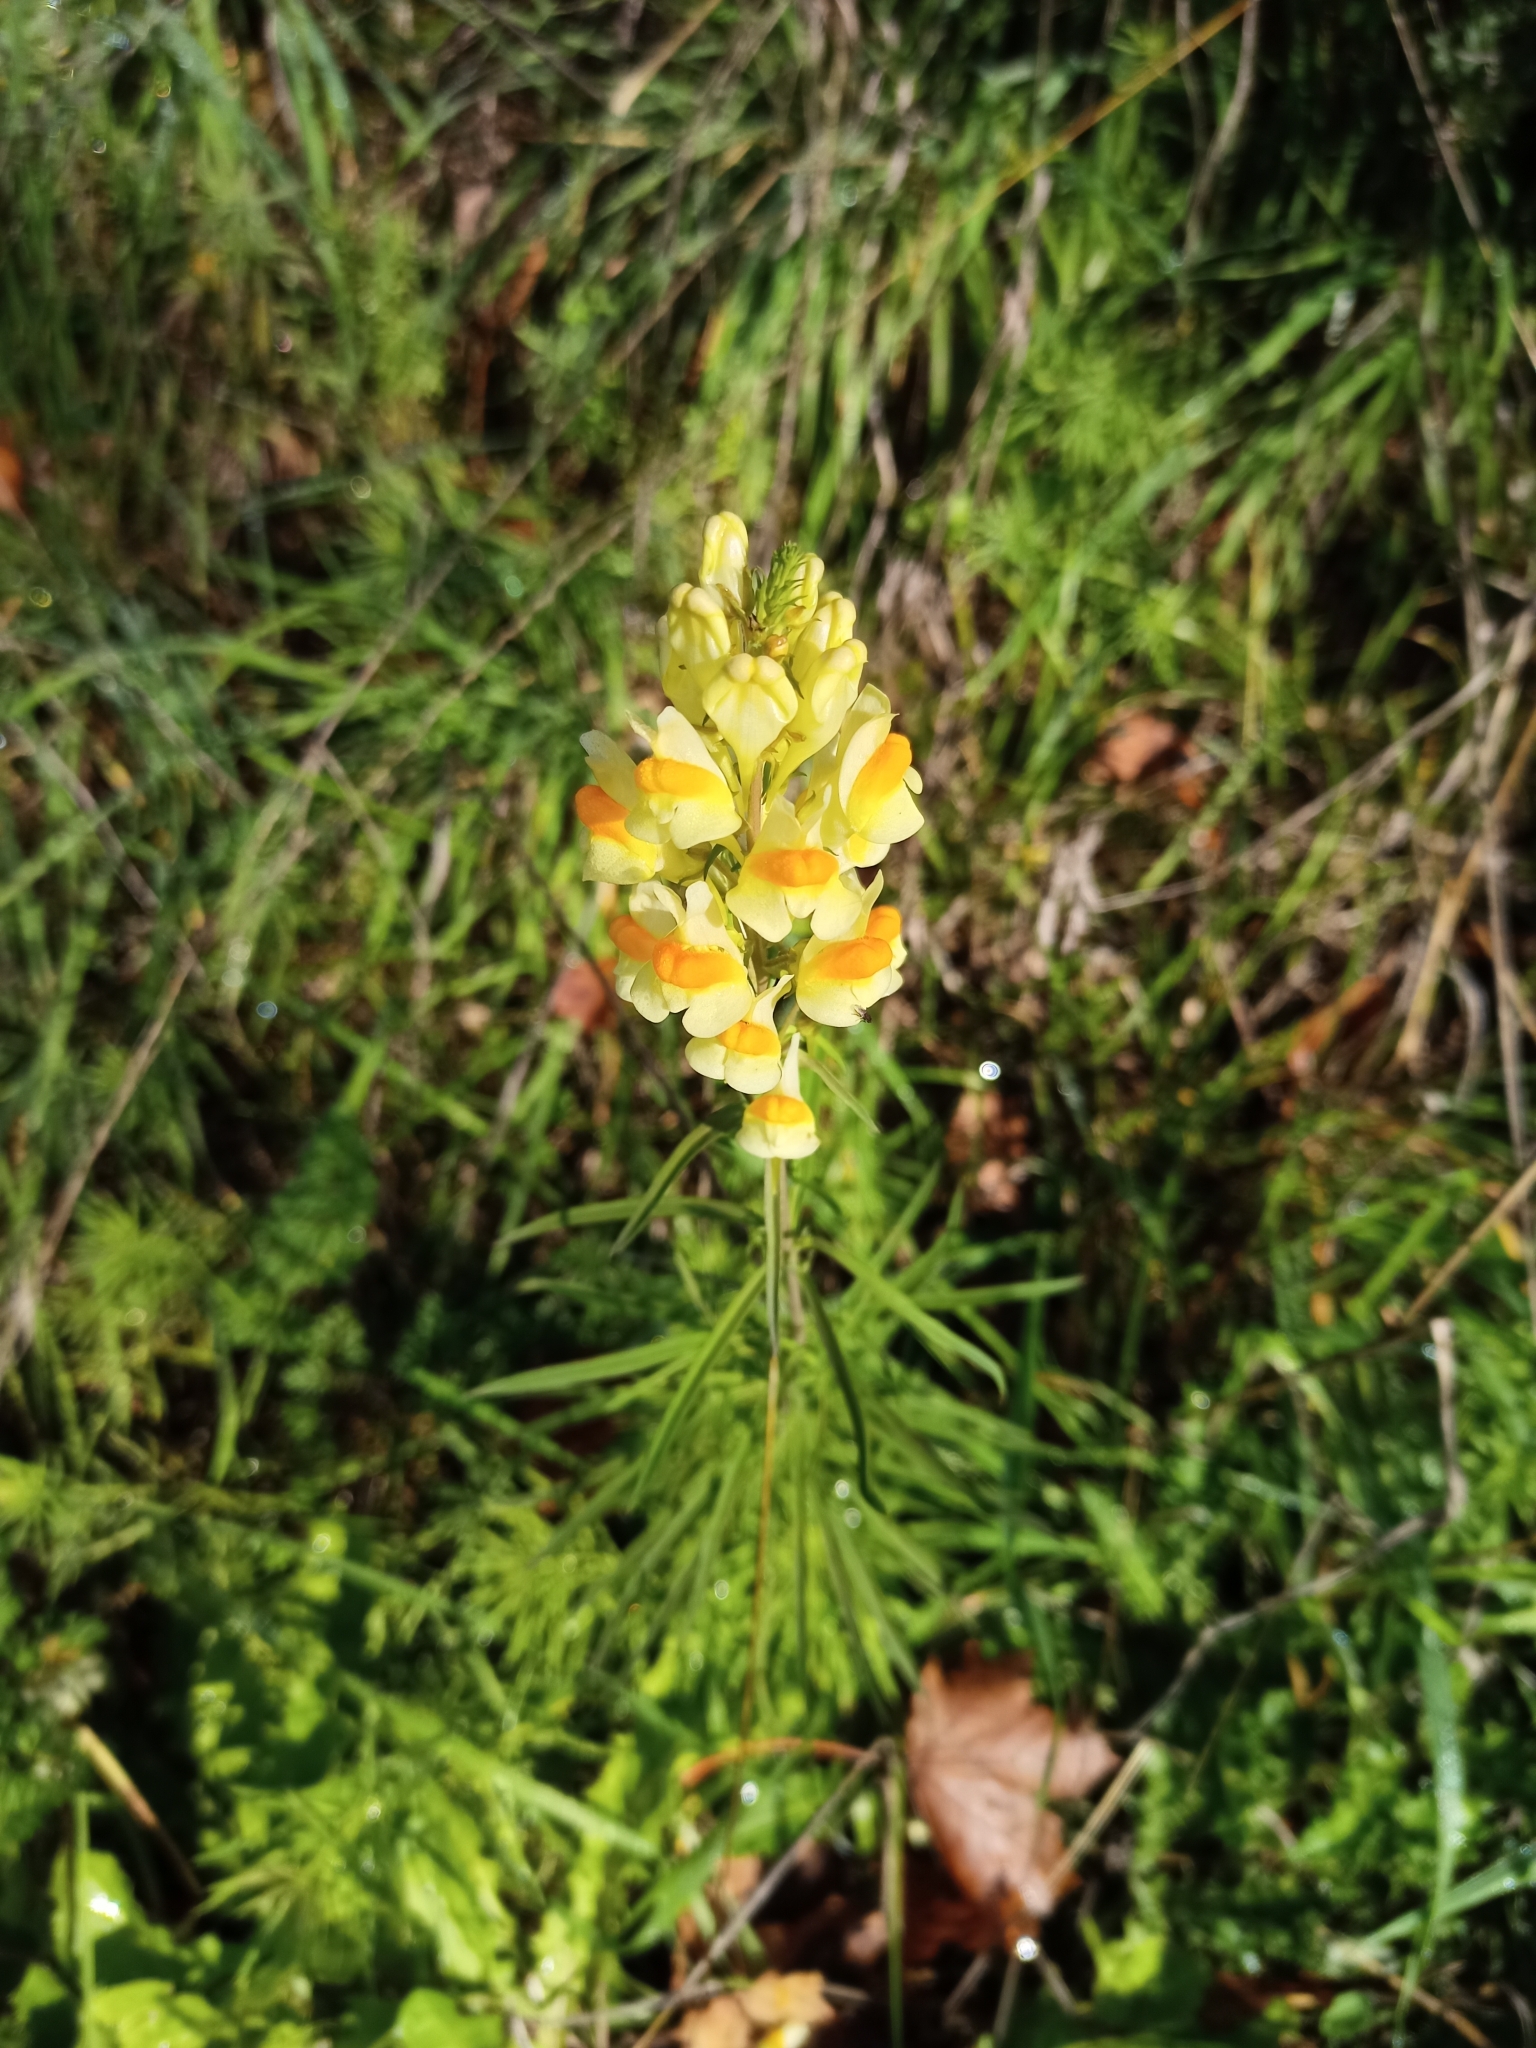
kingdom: Plantae
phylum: Tracheophyta
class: Magnoliopsida
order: Lamiales
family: Plantaginaceae
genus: Linaria
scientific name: Linaria vulgaris
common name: Butter and eggs
